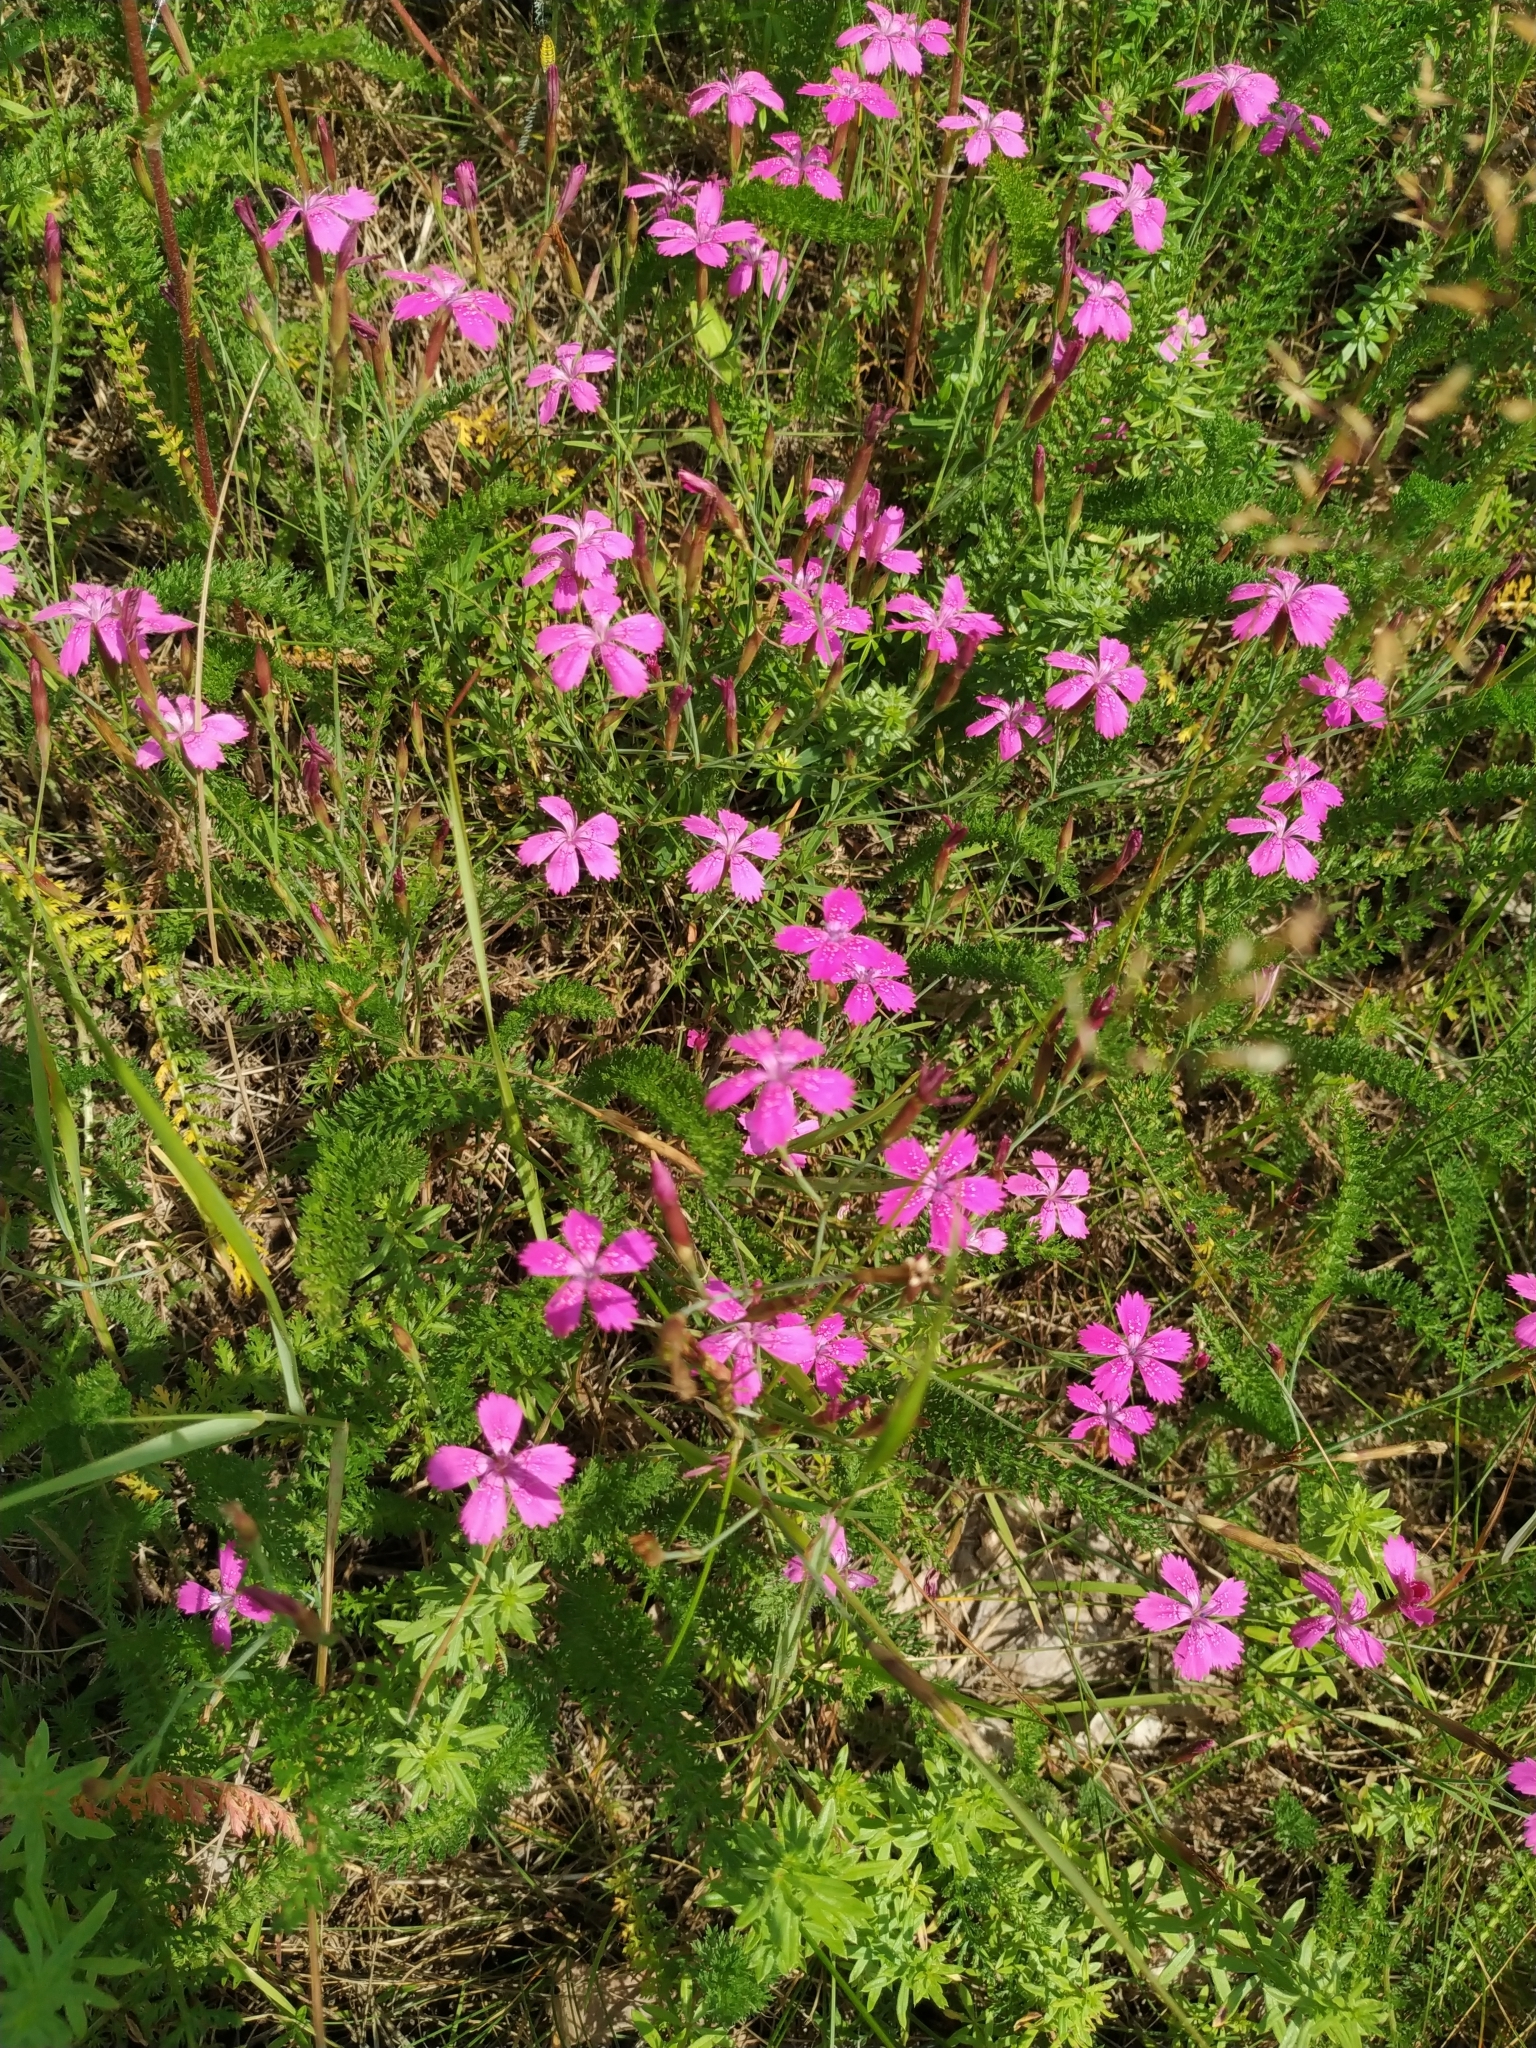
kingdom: Plantae
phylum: Tracheophyta
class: Magnoliopsida
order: Caryophyllales
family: Caryophyllaceae
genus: Dianthus
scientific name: Dianthus deltoides
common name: Maiden pink
